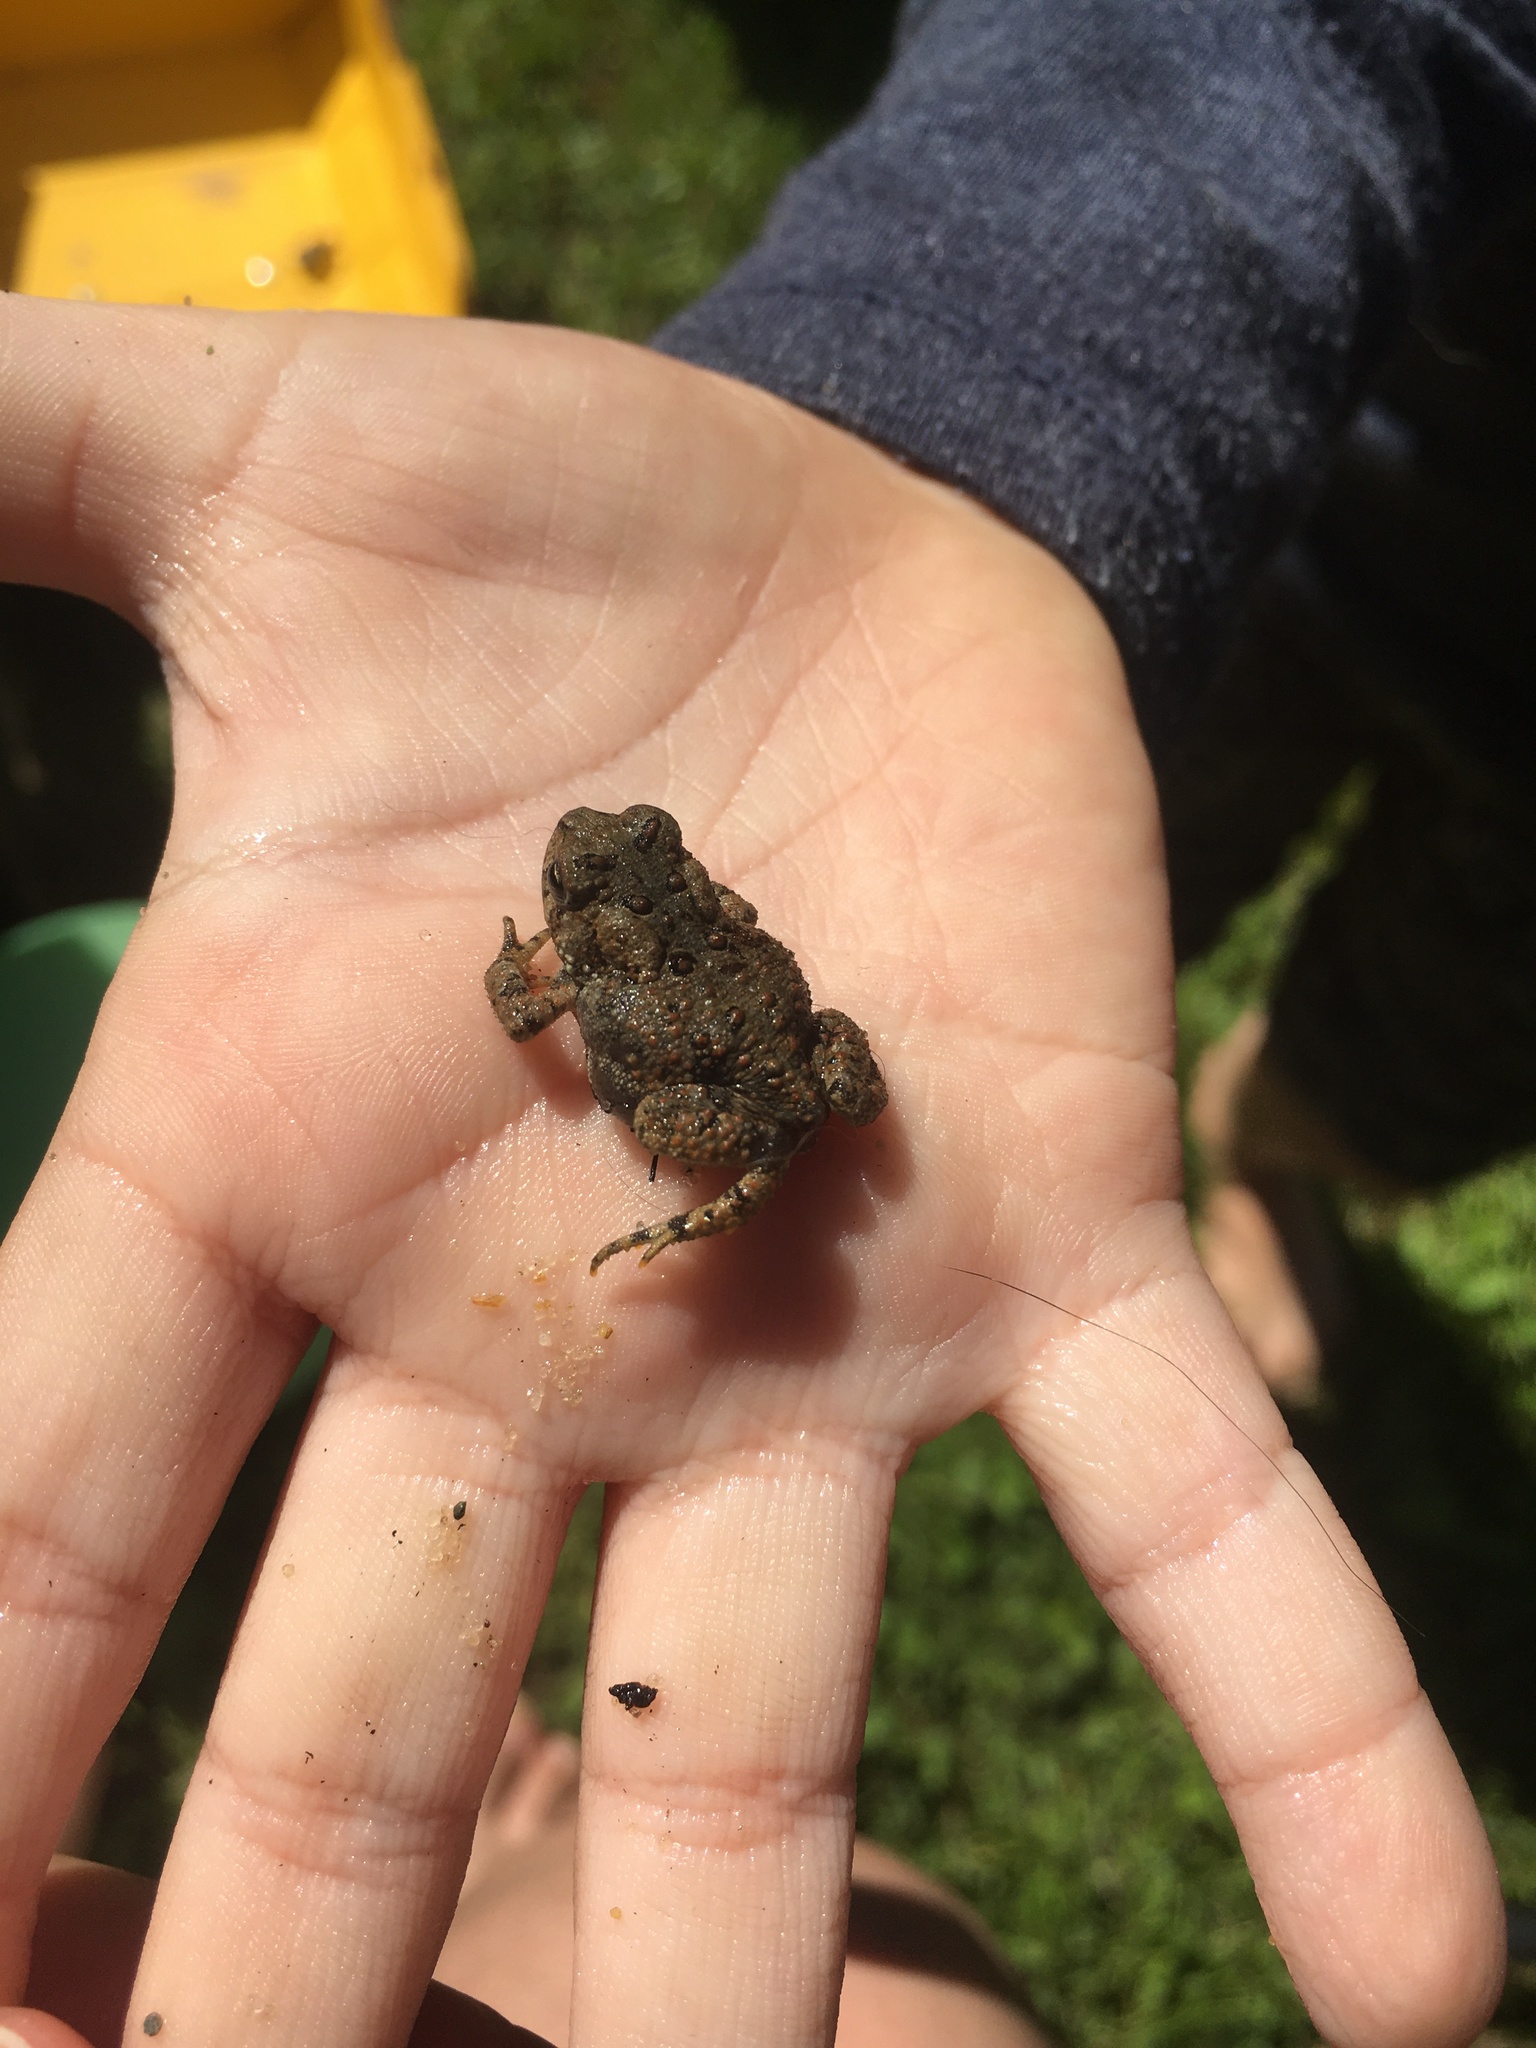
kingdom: Animalia
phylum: Chordata
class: Amphibia
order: Anura
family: Bufonidae
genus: Anaxyrus
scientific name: Anaxyrus americanus
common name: American toad
